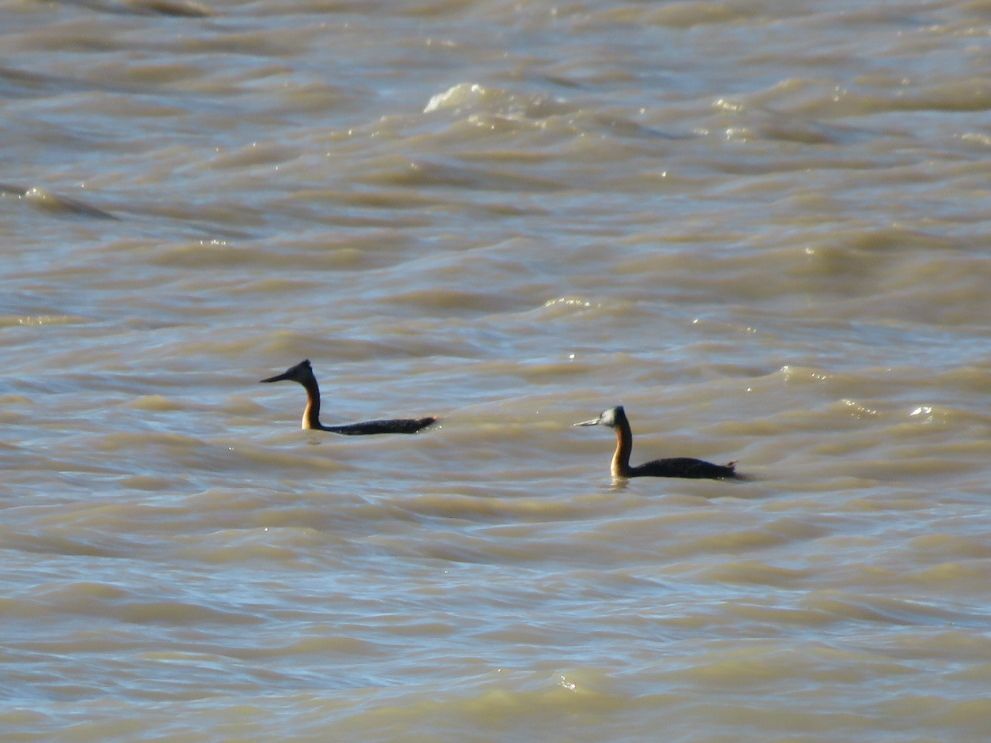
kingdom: Animalia
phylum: Chordata
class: Aves
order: Podicipediformes
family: Podicipedidae
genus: Podiceps
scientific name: Podiceps major
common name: Great grebe
